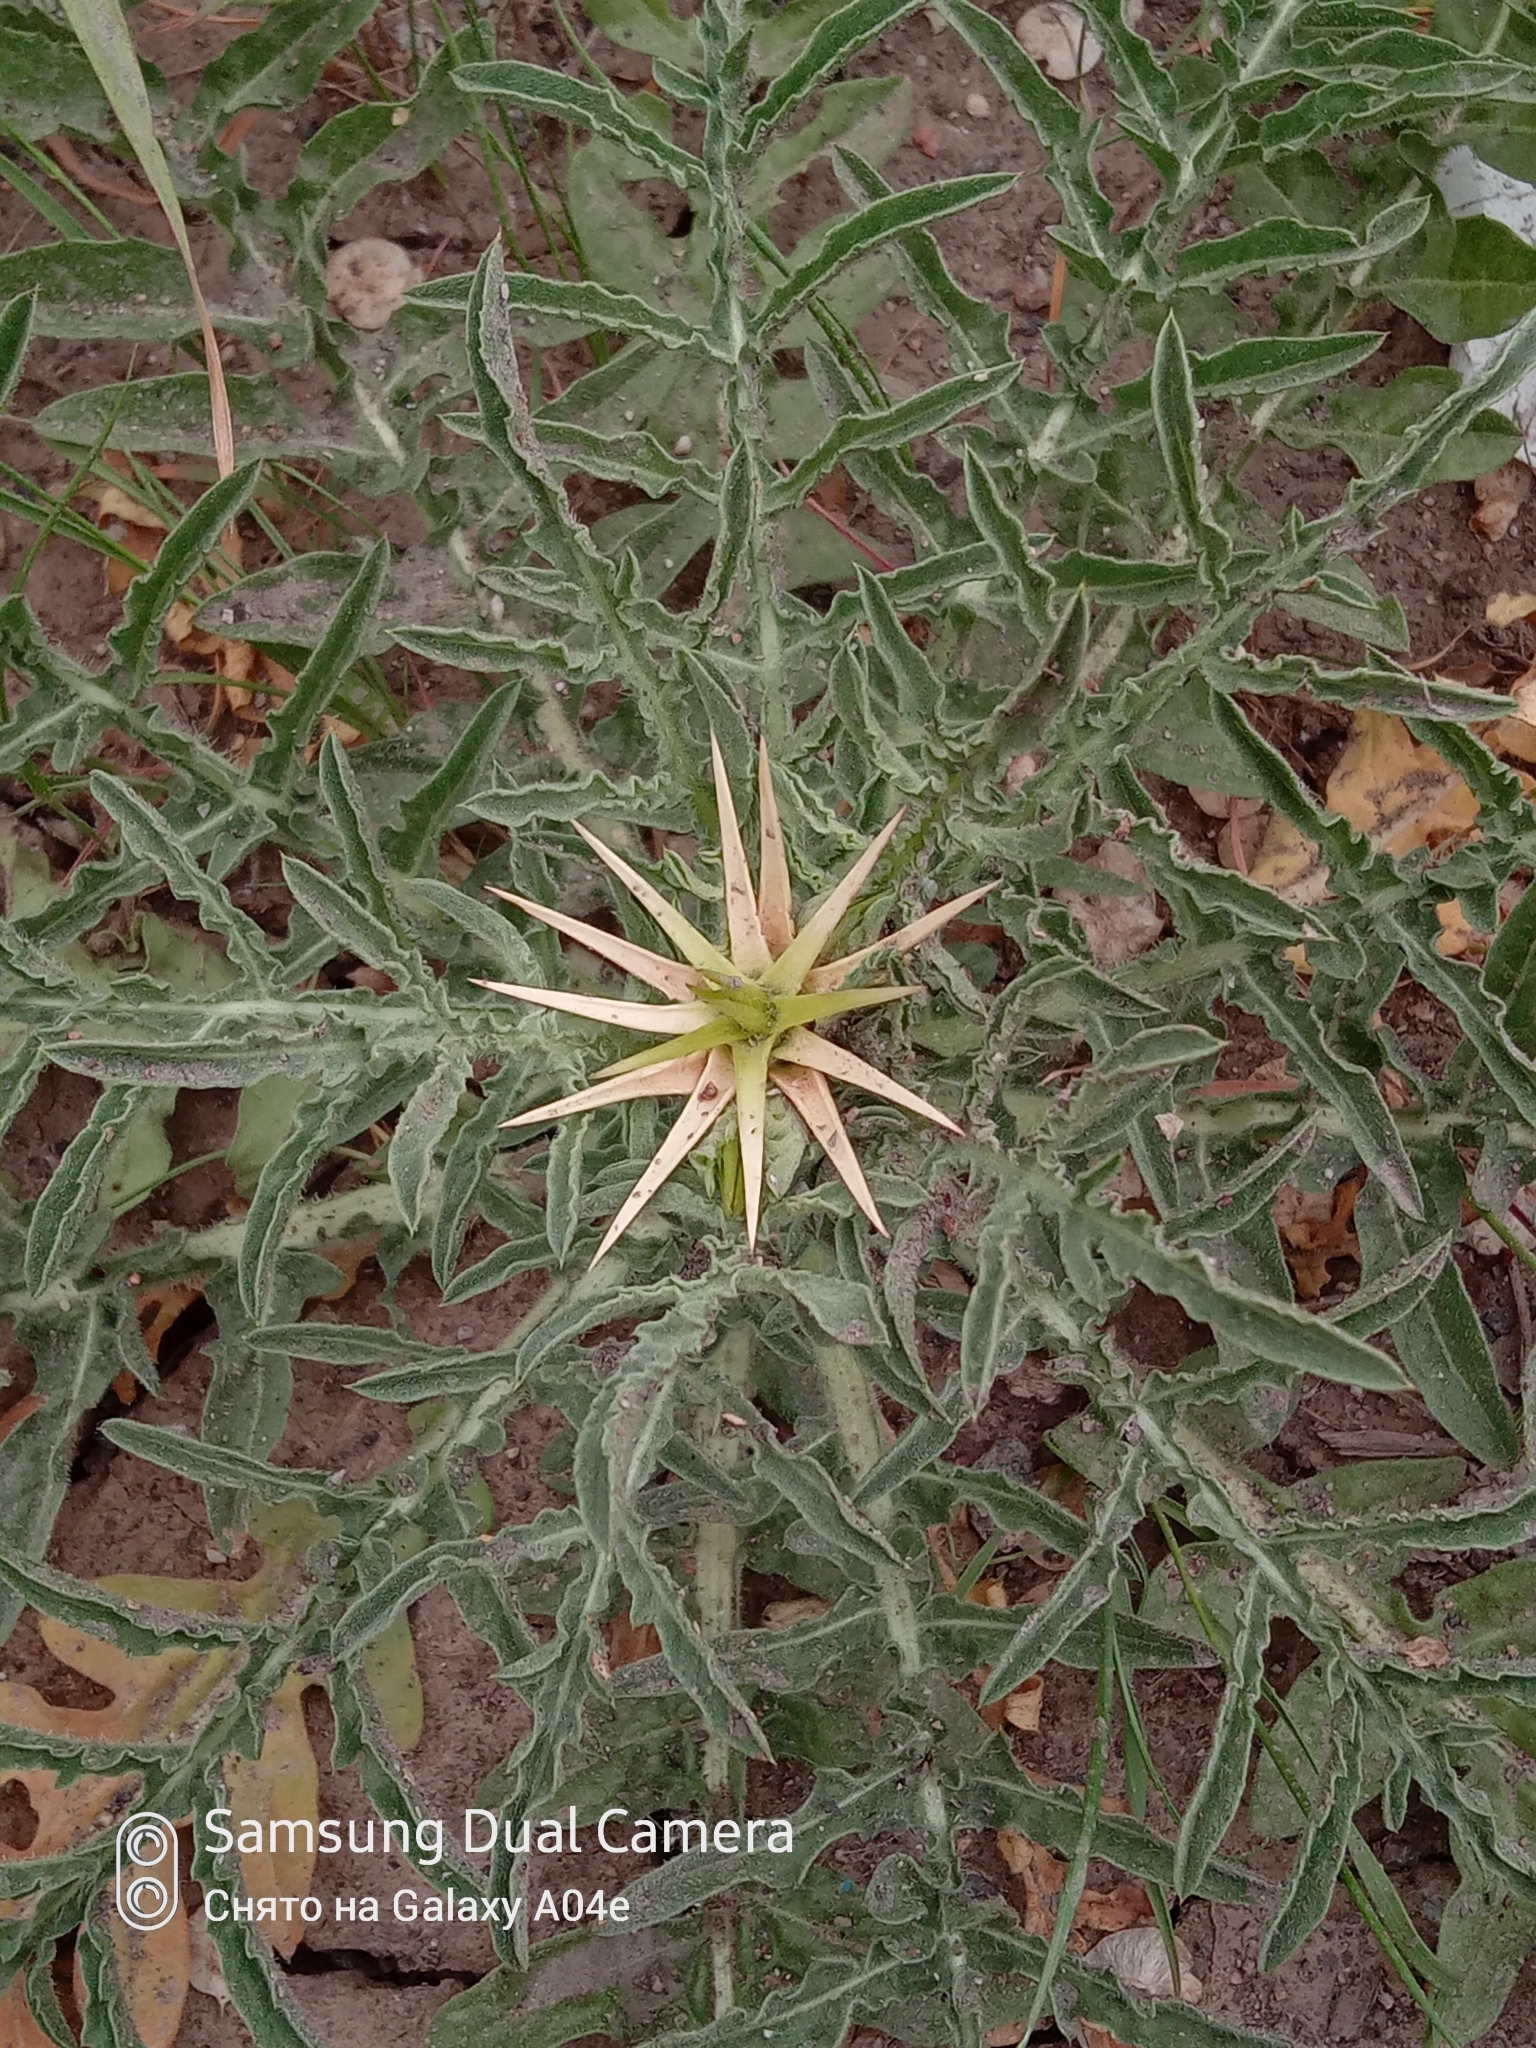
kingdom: Plantae
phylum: Tracheophyta
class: Magnoliopsida
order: Asterales
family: Asteraceae
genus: Centaurea
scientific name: Centaurea iberica
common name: Iberian knapweed
